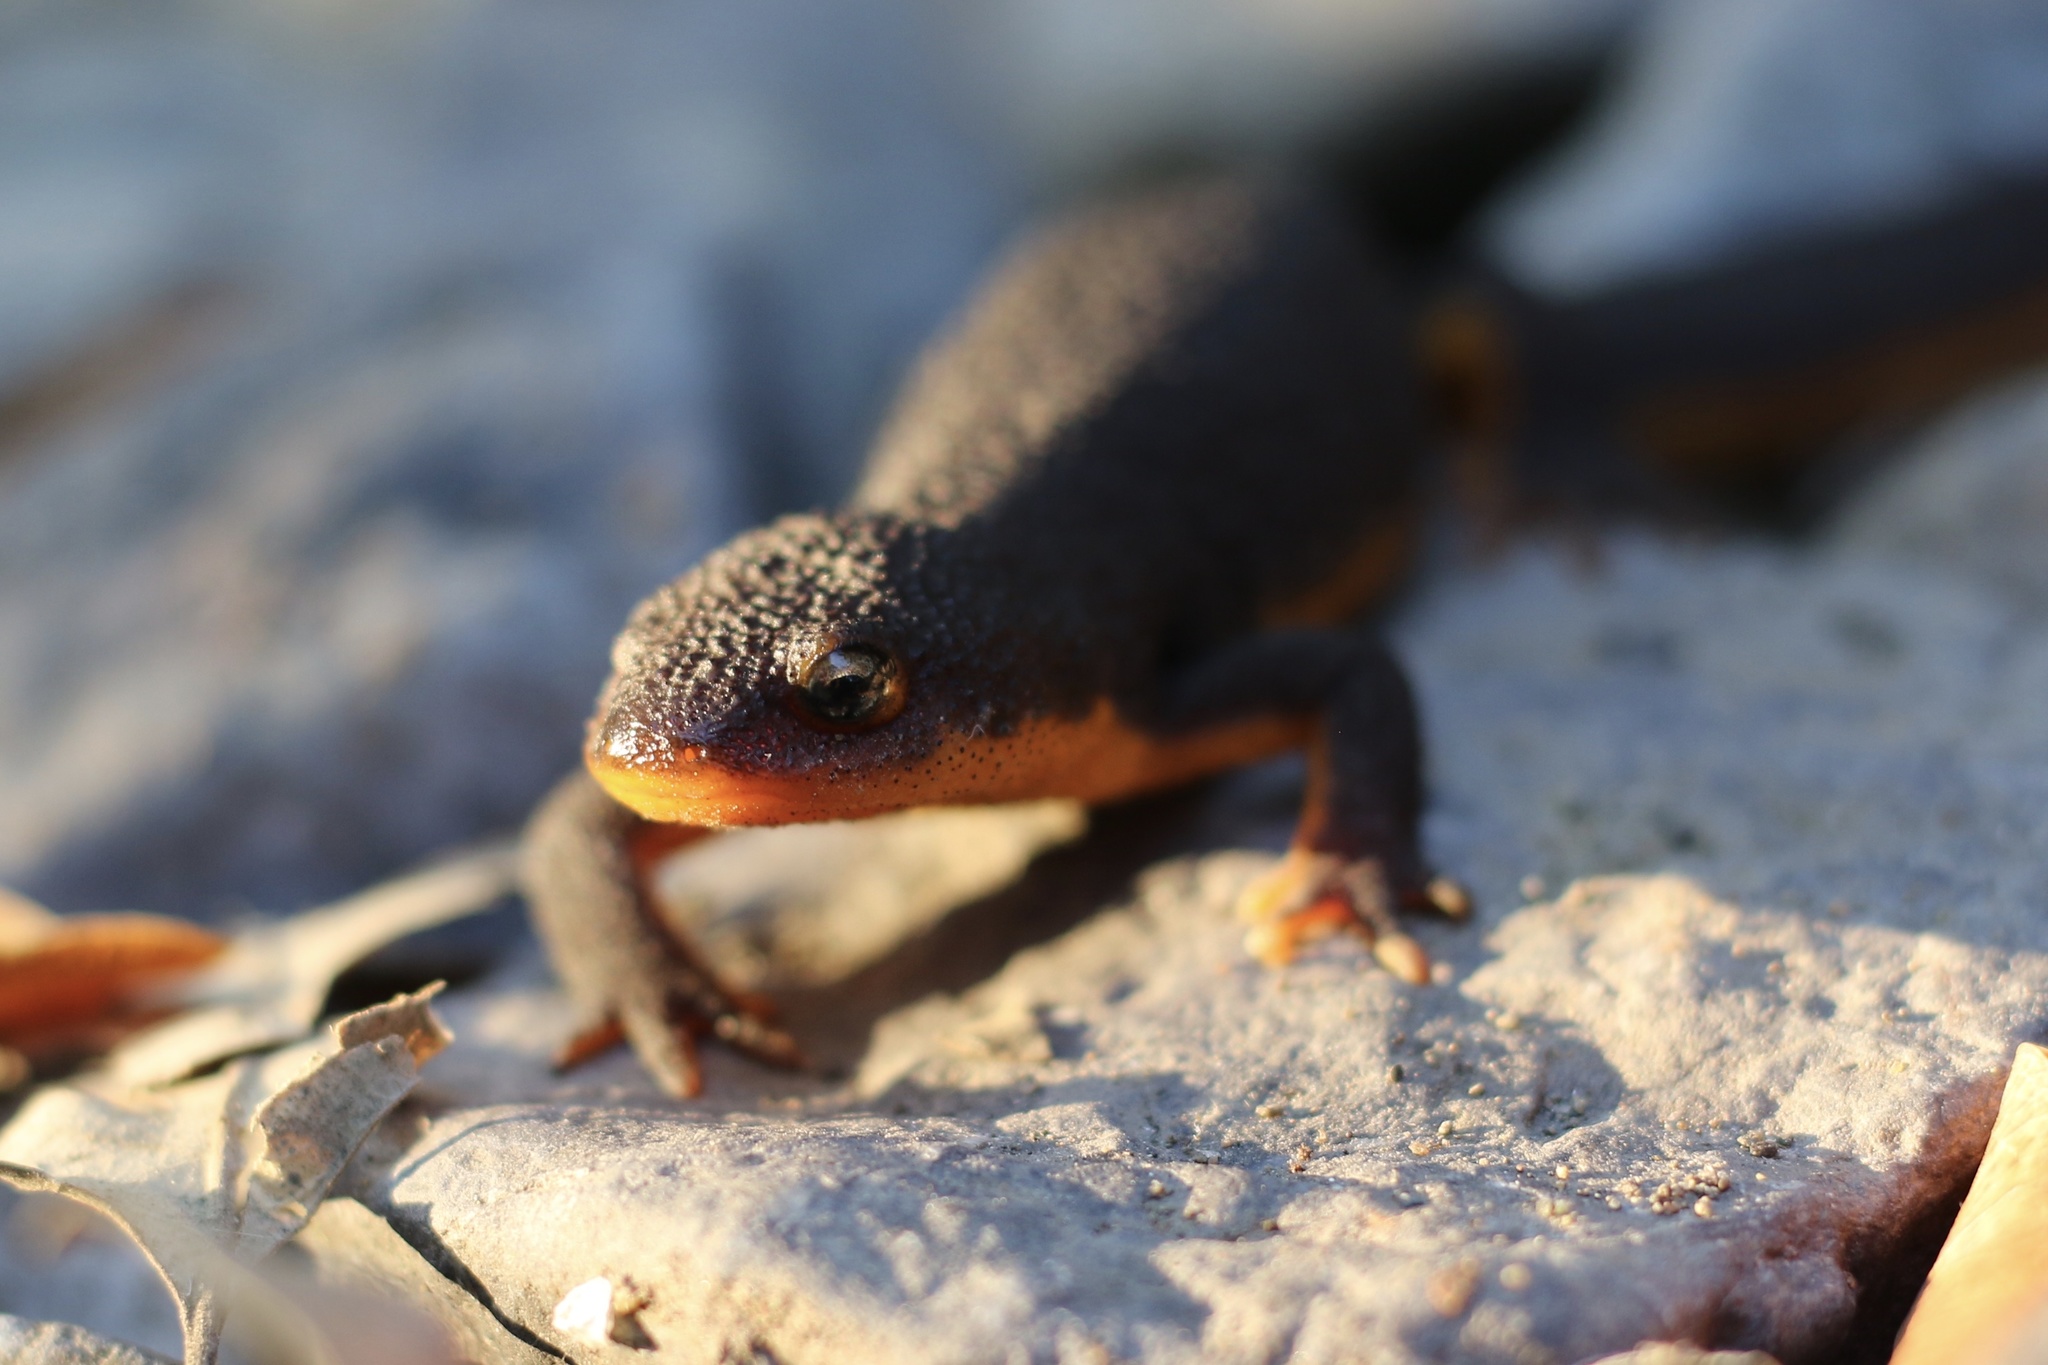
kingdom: Animalia
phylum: Chordata
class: Amphibia
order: Caudata
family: Salamandridae
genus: Taricha
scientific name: Taricha granulosa
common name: Roughskin newt
